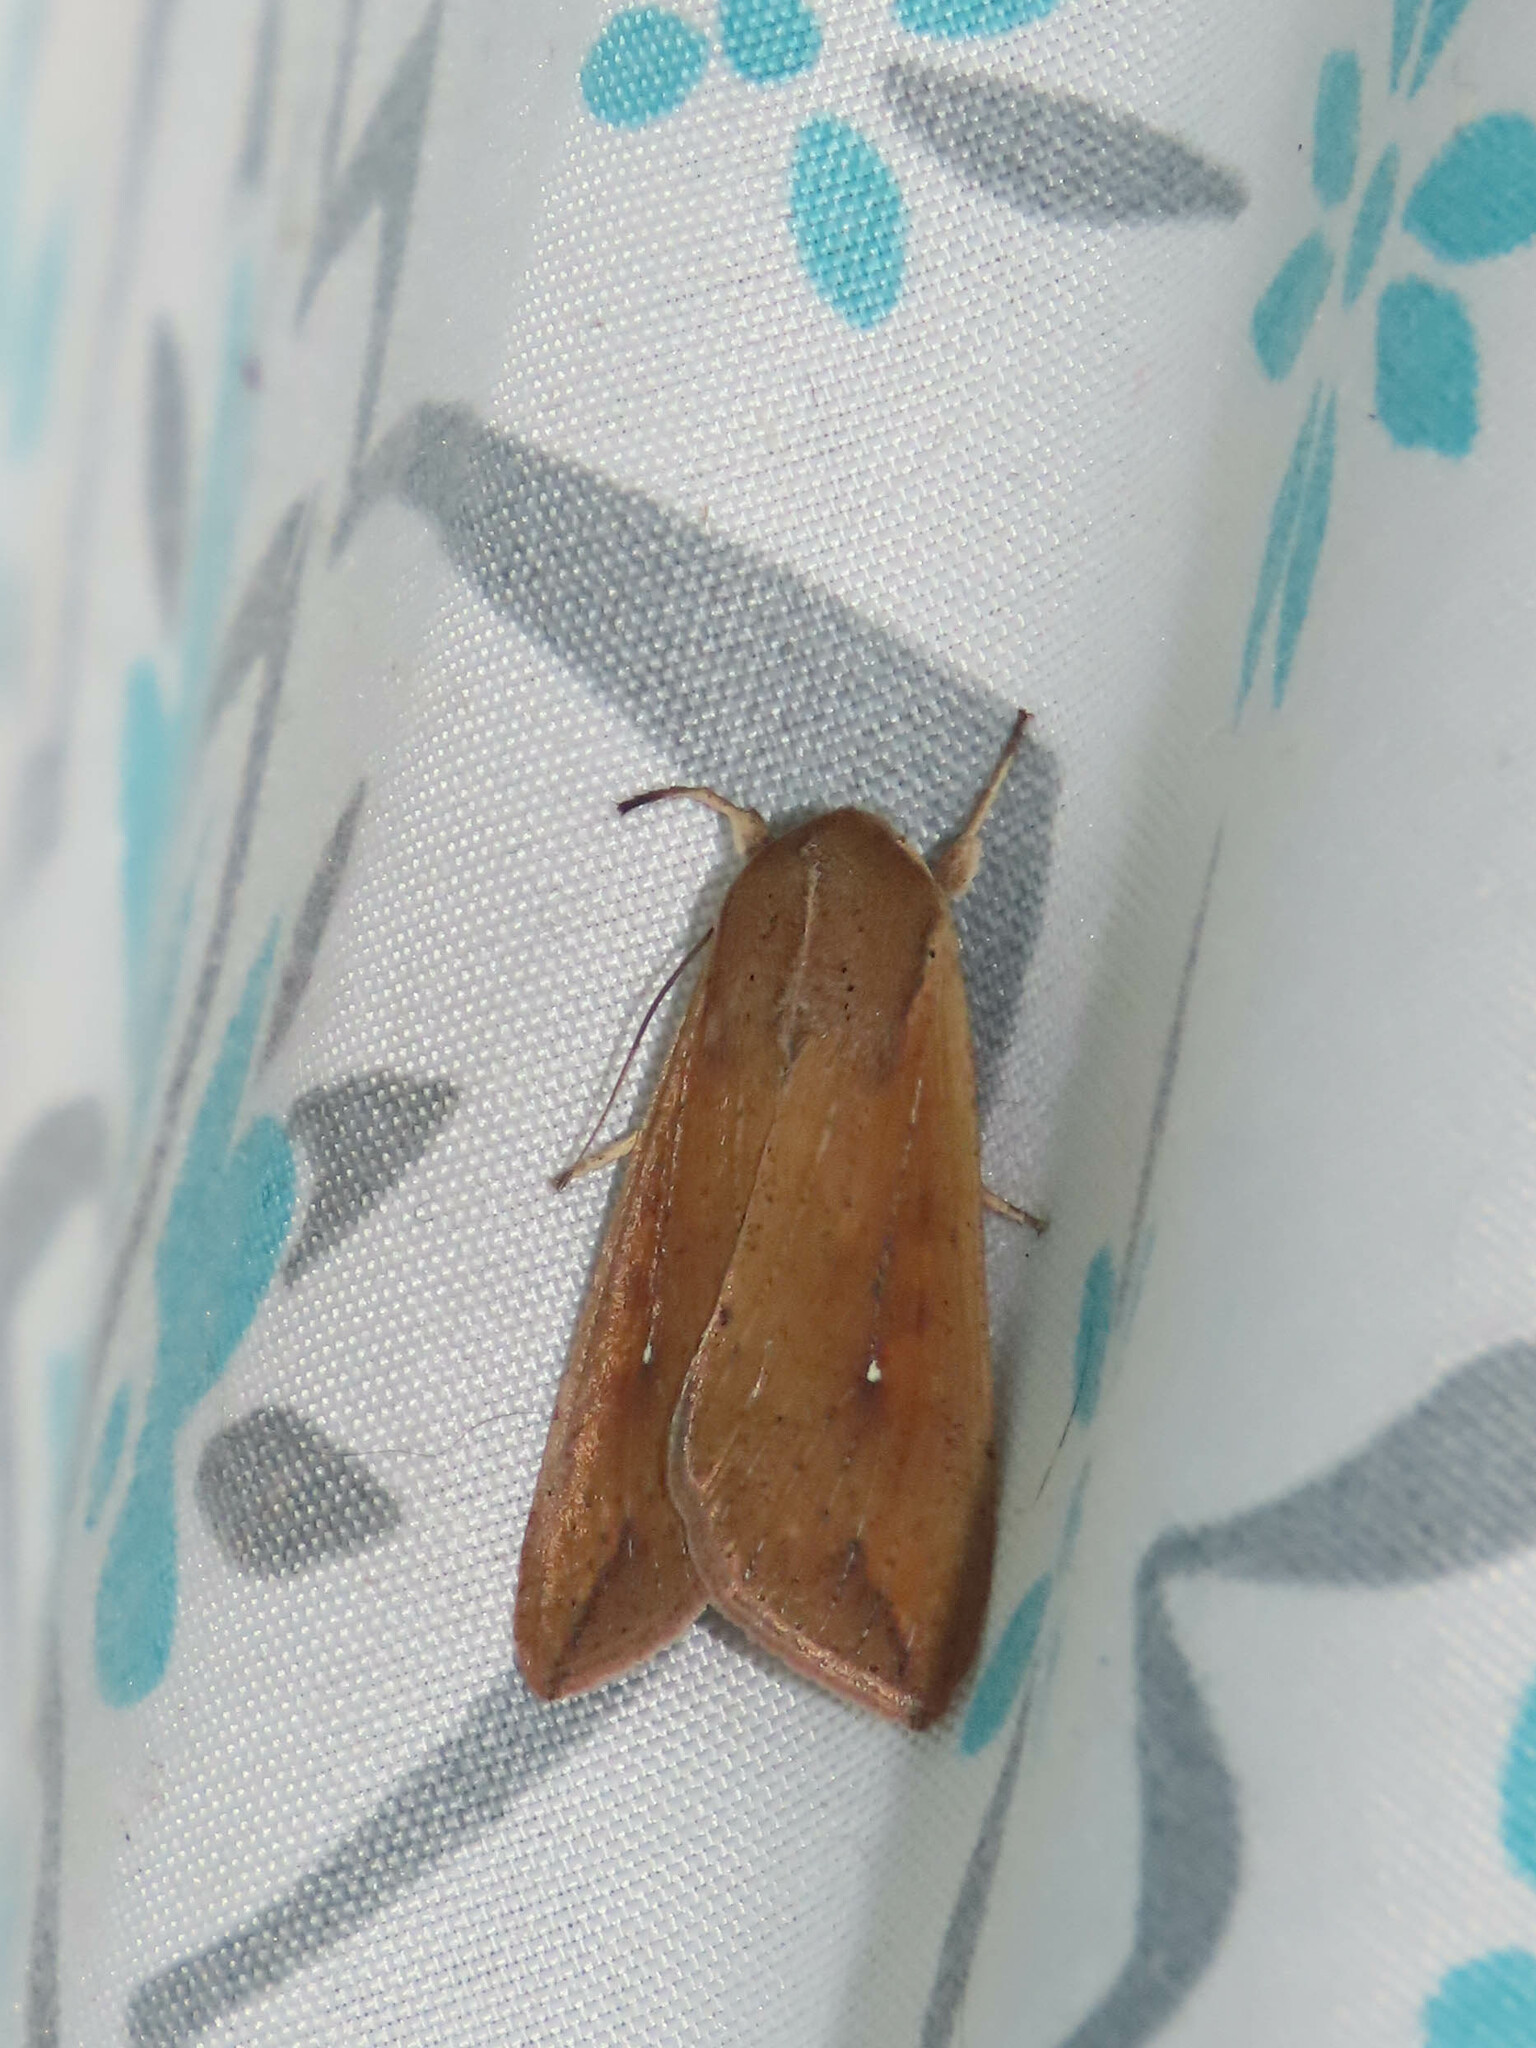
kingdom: Animalia
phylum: Arthropoda
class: Insecta
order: Lepidoptera
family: Noctuidae
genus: Mythimna
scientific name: Mythimna unipuncta
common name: White-speck
